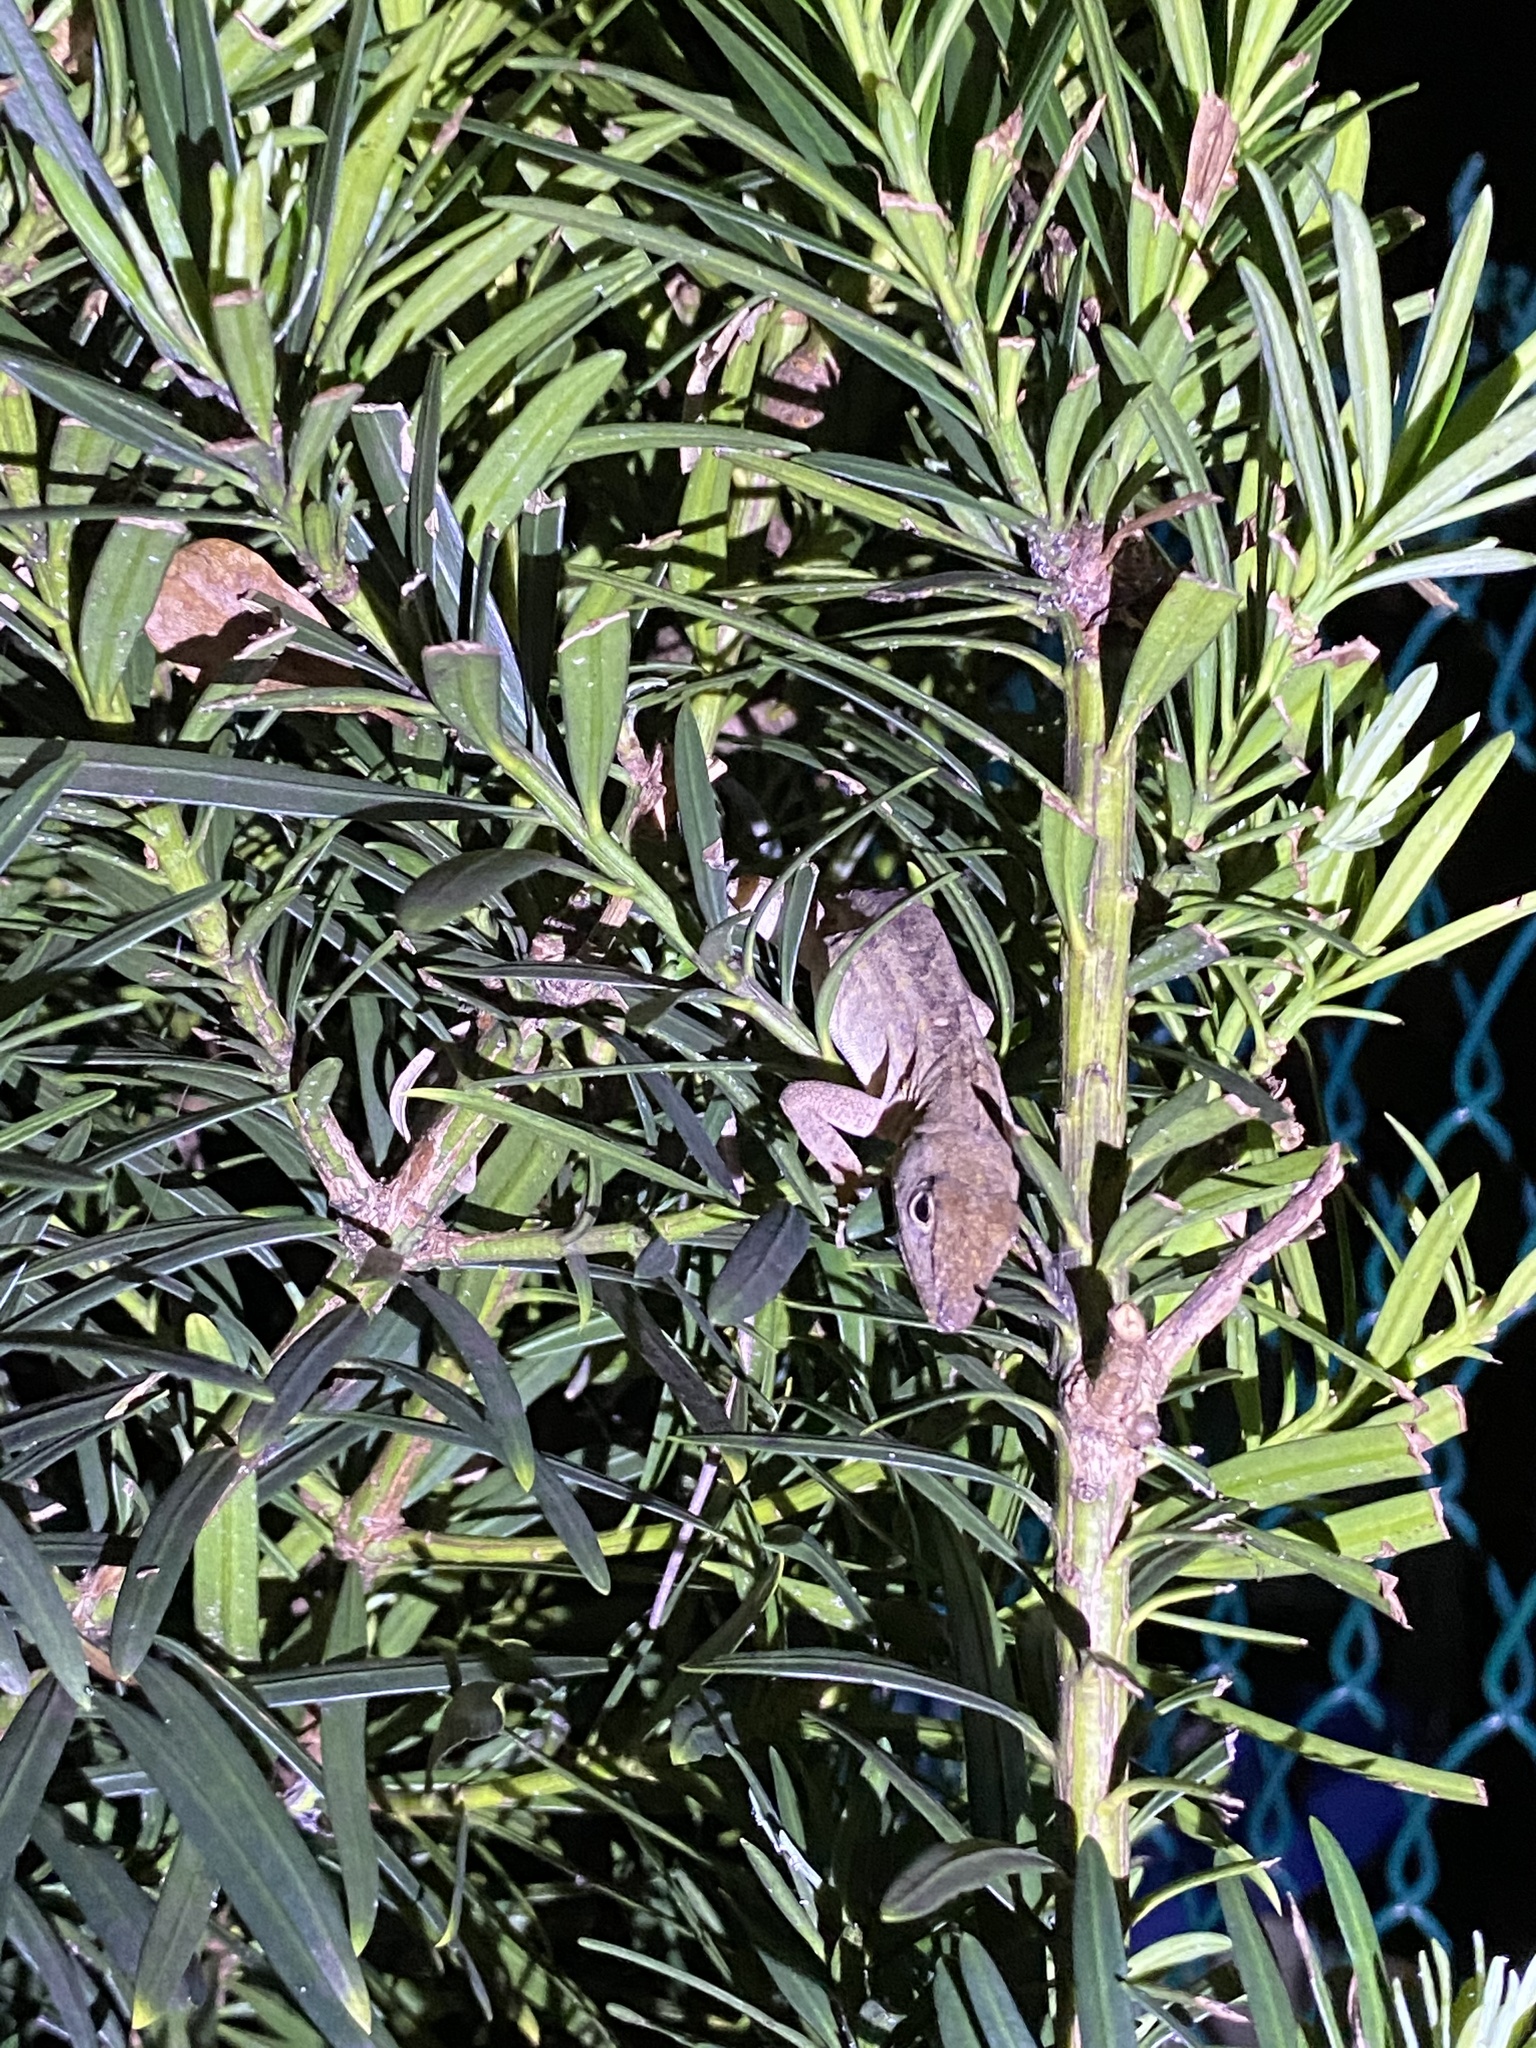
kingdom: Animalia
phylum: Chordata
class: Squamata
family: Dactyloidae
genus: Anolis
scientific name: Anolis sagrei
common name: Brown anole
